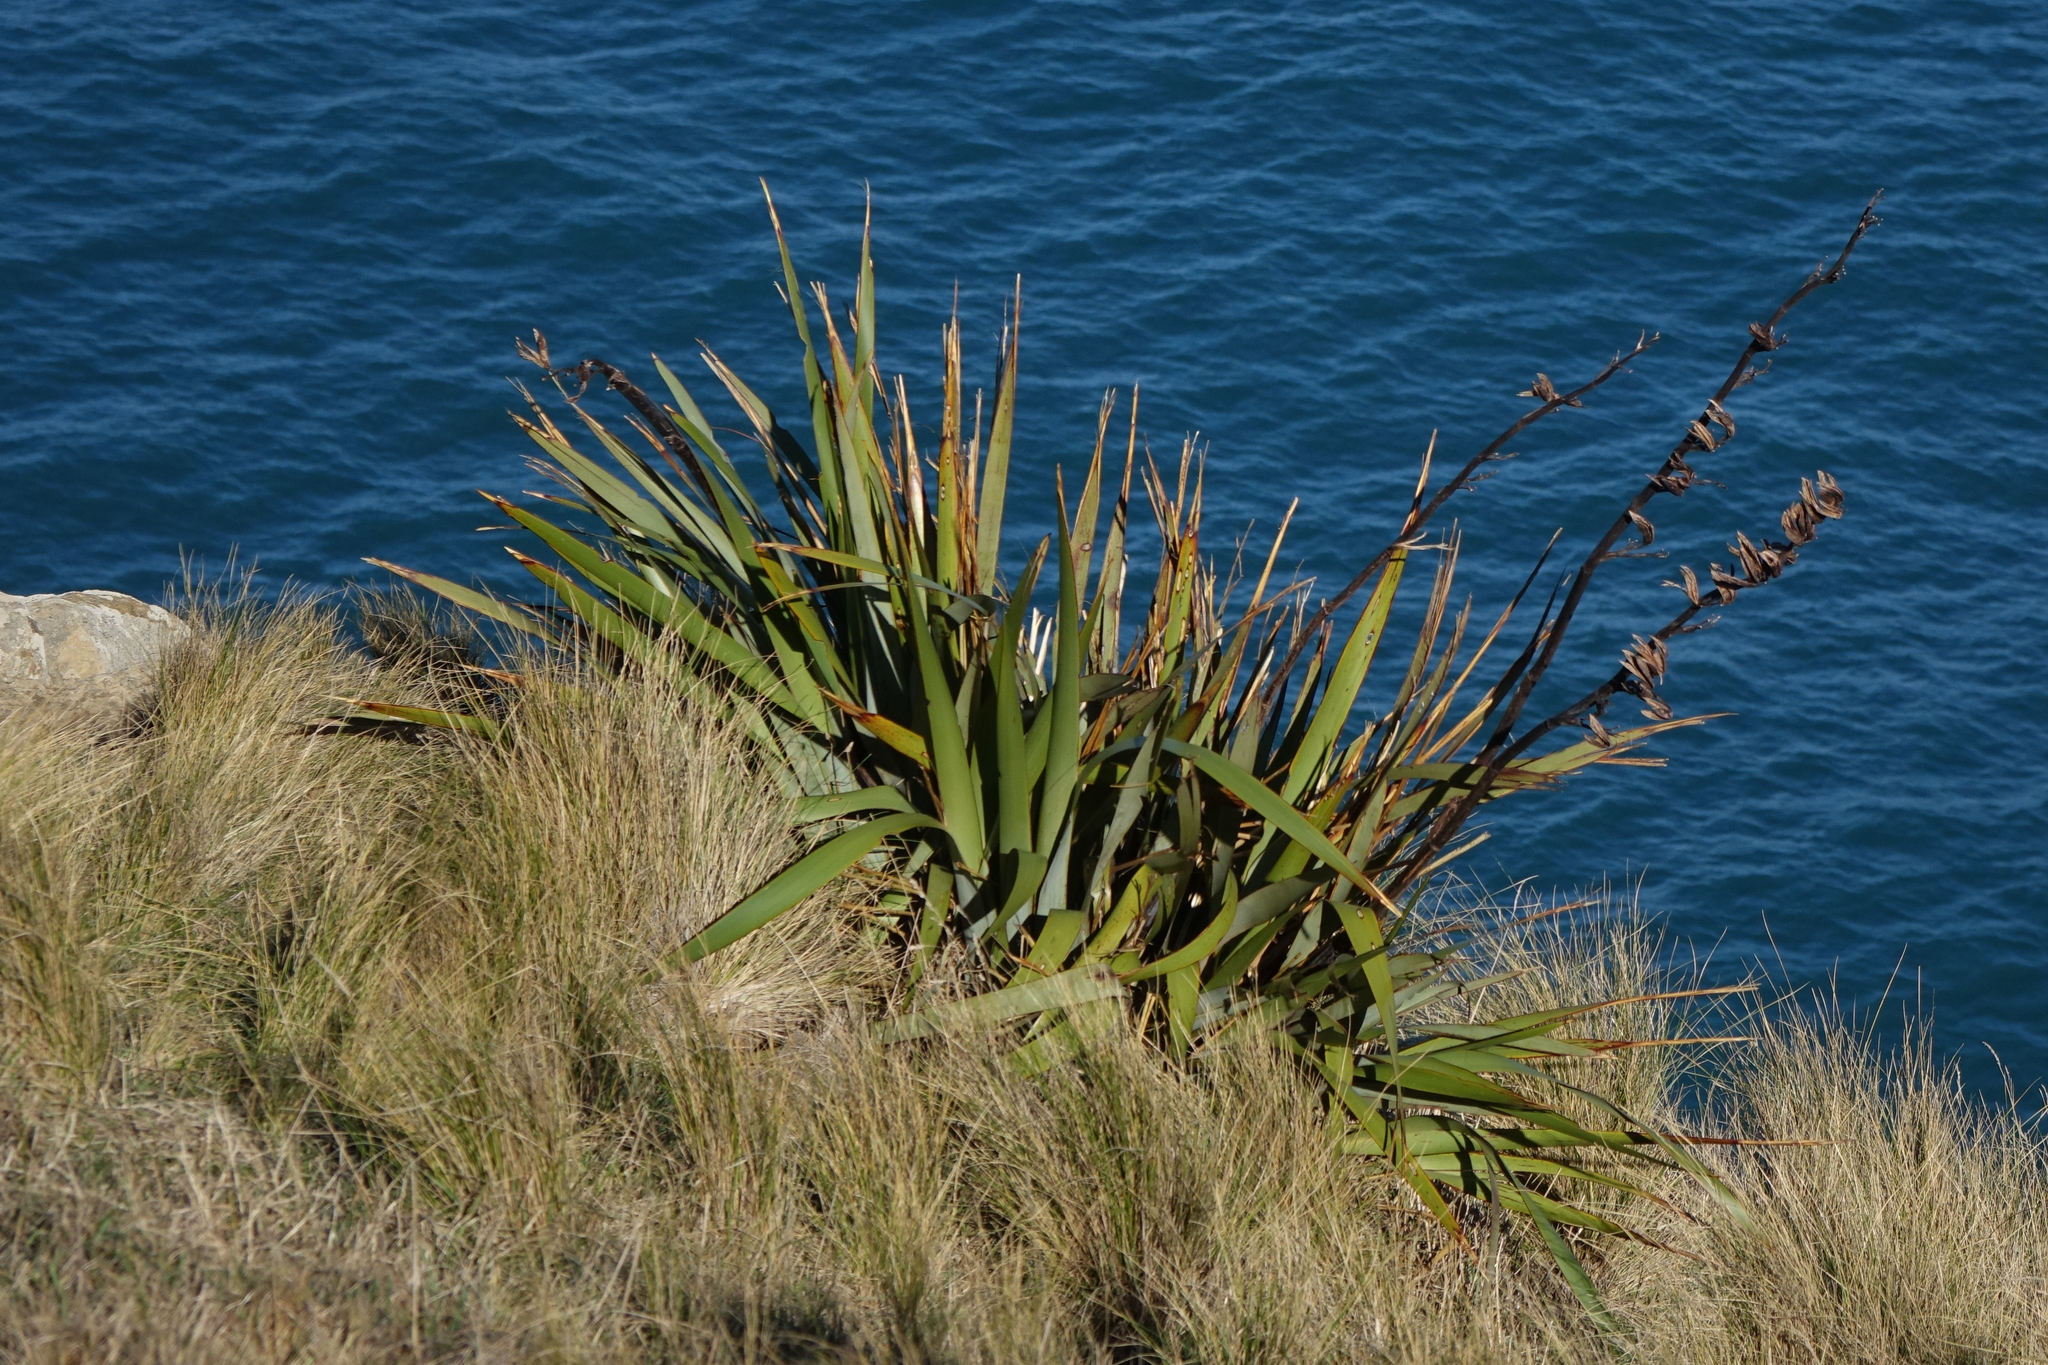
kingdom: Plantae
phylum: Tracheophyta
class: Liliopsida
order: Asparagales
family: Asphodelaceae
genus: Phormium
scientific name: Phormium tenax
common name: New zealand flax
